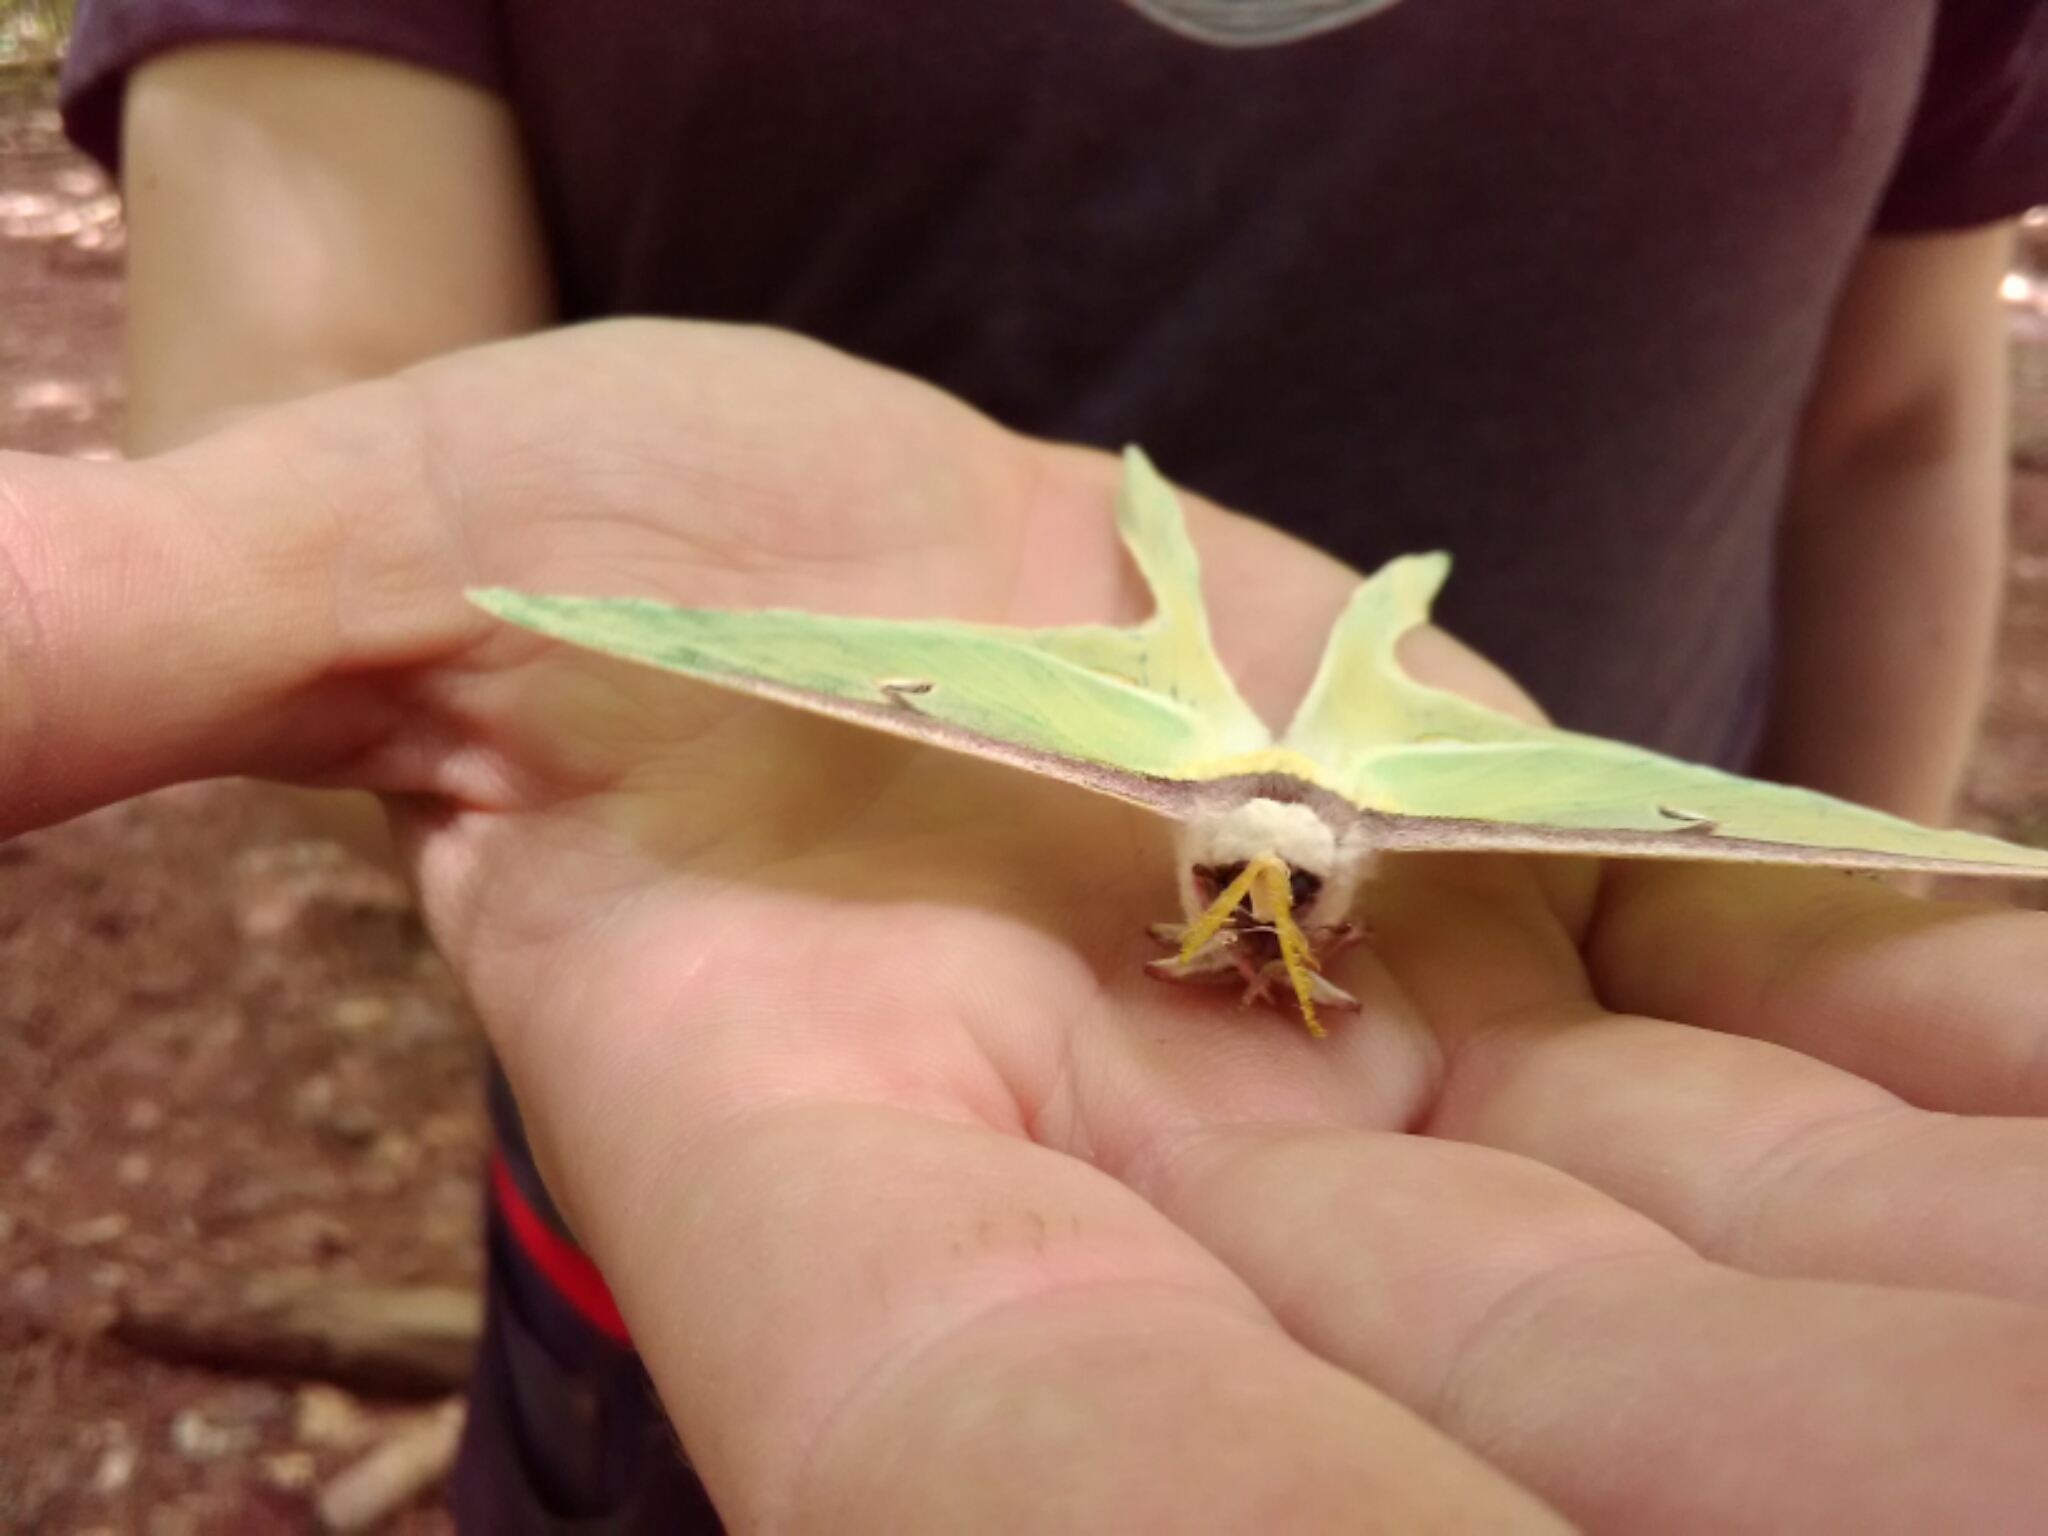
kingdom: Animalia
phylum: Arthropoda
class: Insecta
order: Lepidoptera
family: Saturniidae
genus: Actias
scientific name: Actias luna
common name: Luna moth
